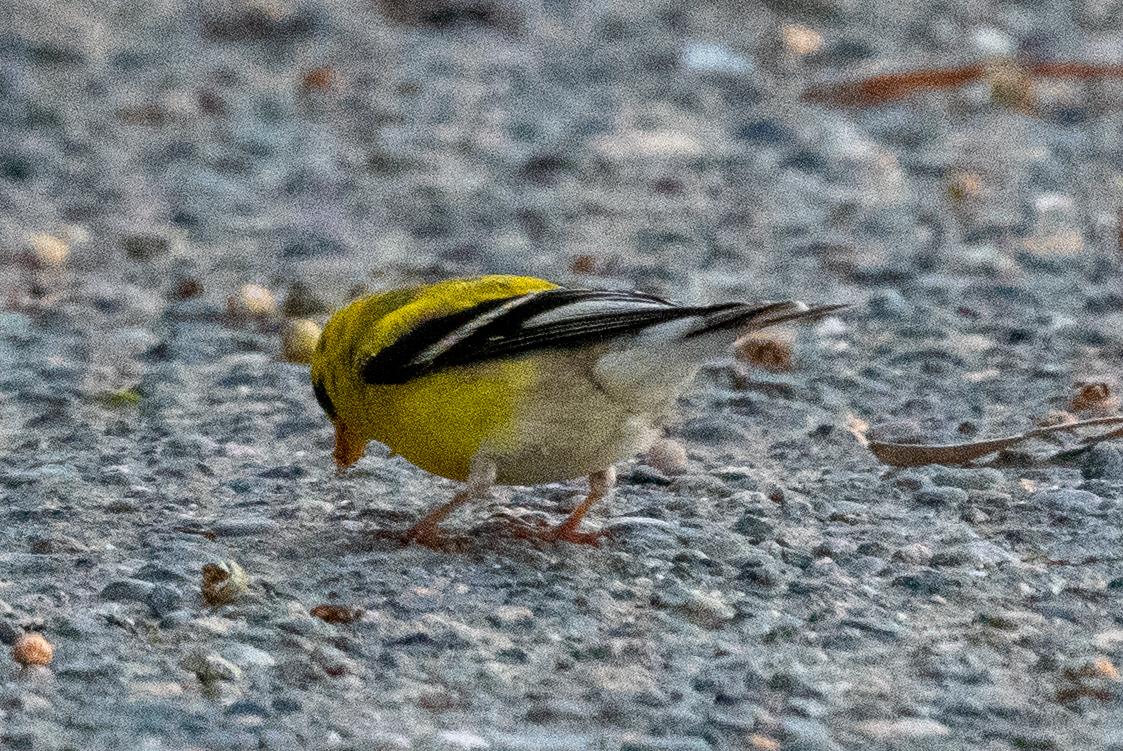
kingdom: Animalia
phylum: Chordata
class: Aves
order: Passeriformes
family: Fringillidae
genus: Spinus
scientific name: Spinus tristis
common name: American goldfinch
